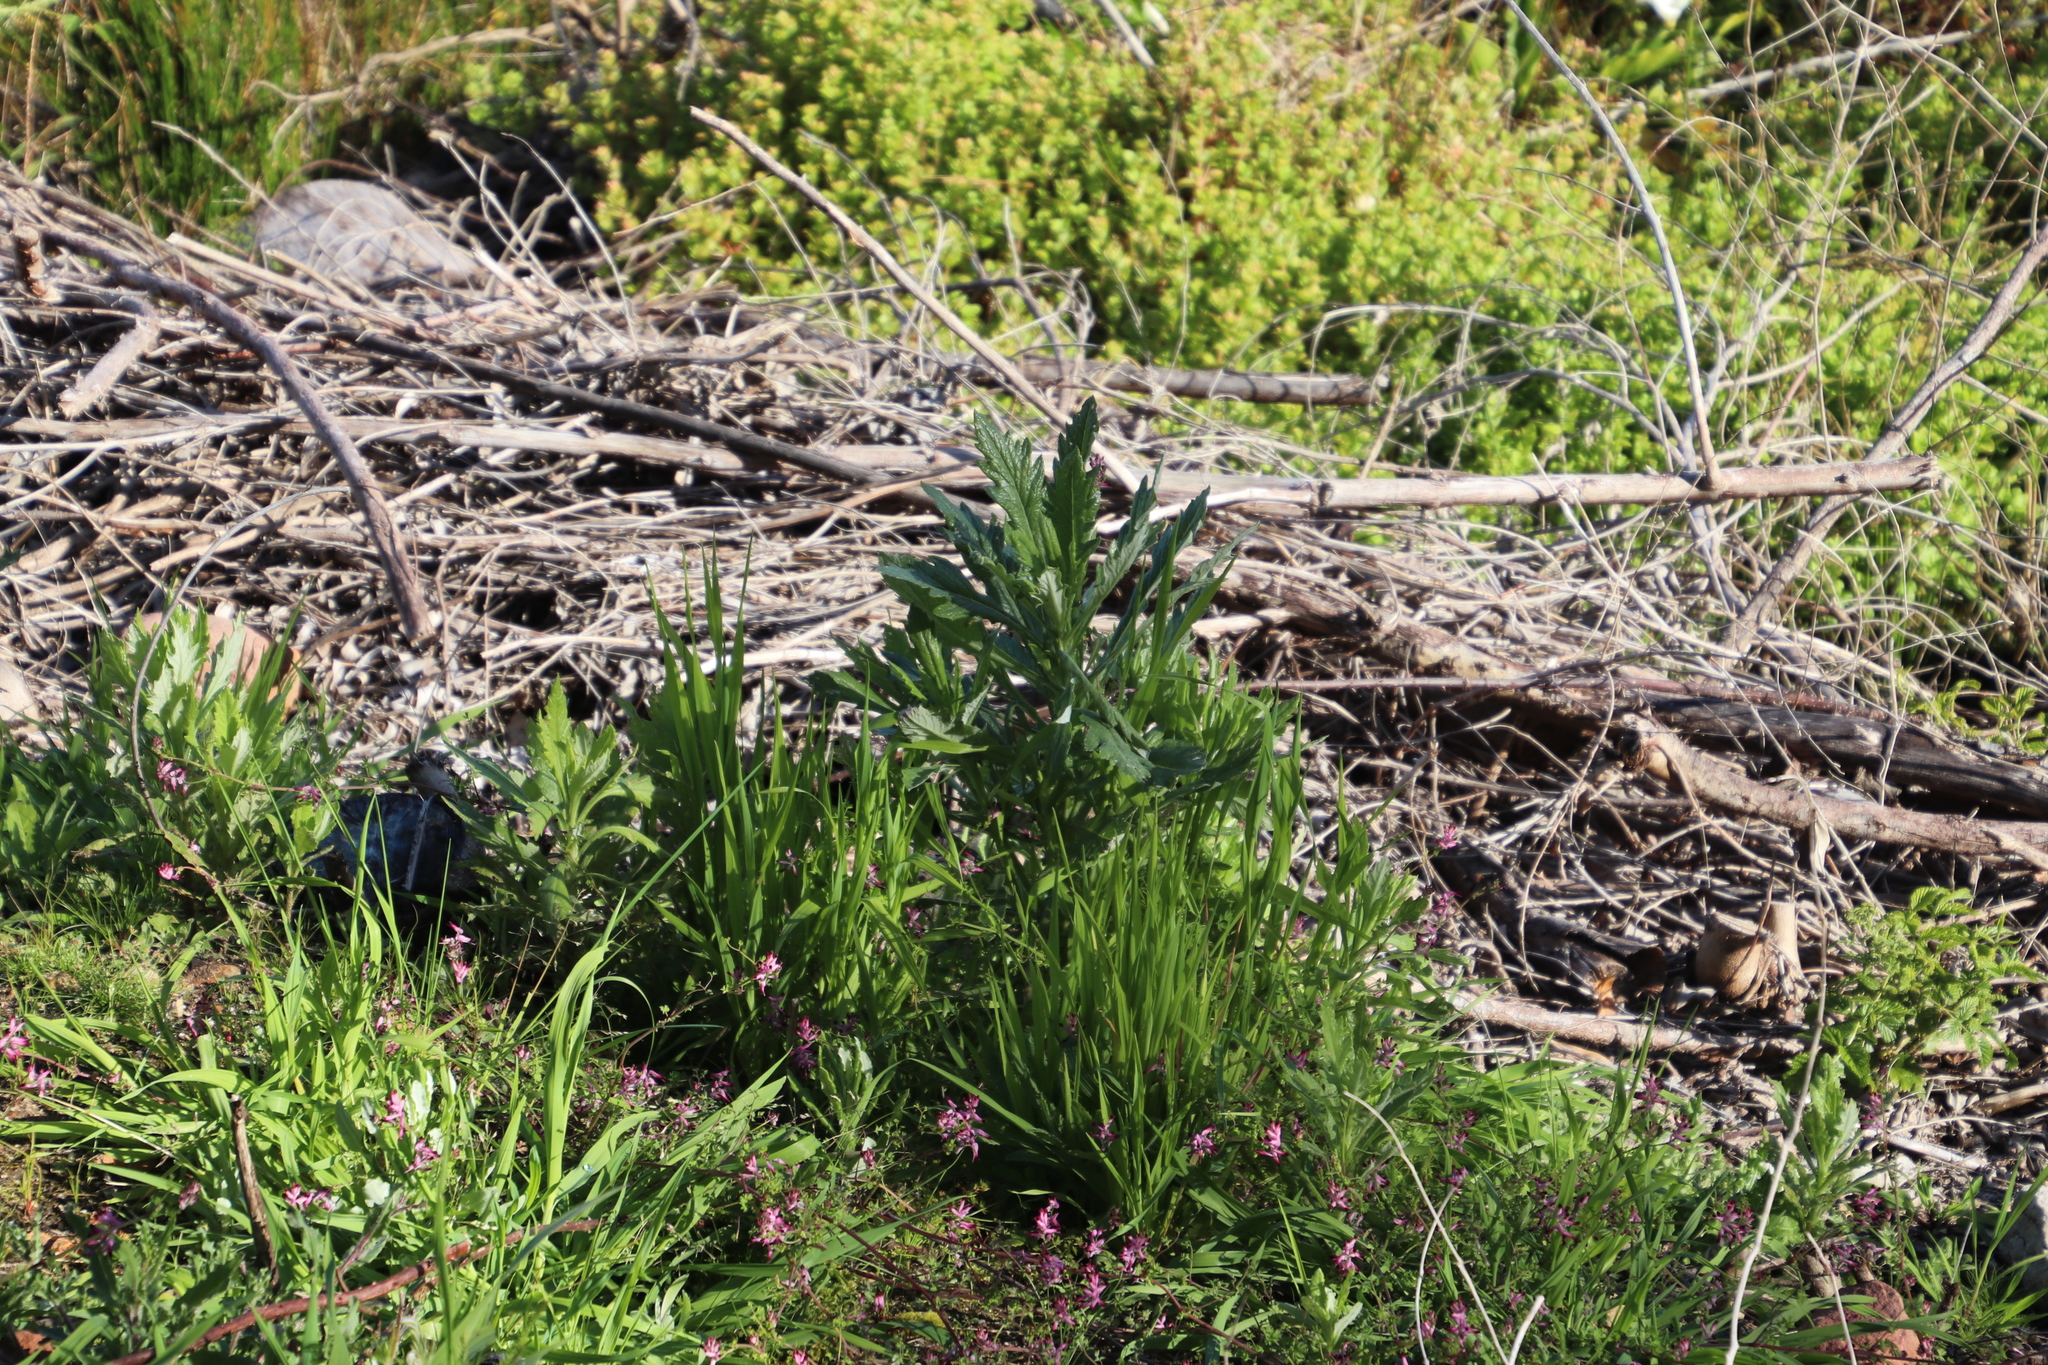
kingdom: Plantae
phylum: Tracheophyta
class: Magnoliopsida
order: Asterales
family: Asteraceae
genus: Senecio
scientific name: Senecio pterophorus
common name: Shoddy ragwort
